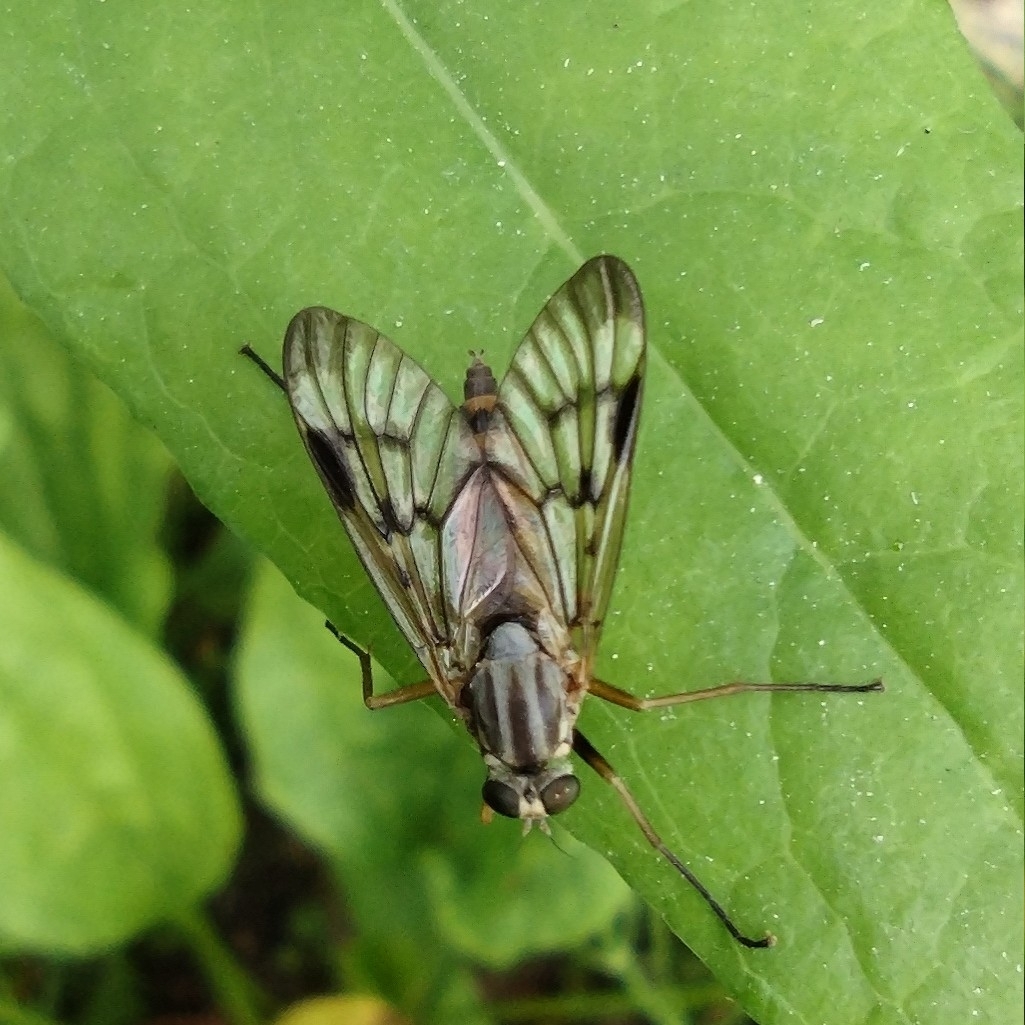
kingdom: Animalia
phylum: Arthropoda
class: Insecta
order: Diptera
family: Rhagionidae
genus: Rhagio
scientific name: Rhagio scolopacea
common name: Downlooker snipefly
